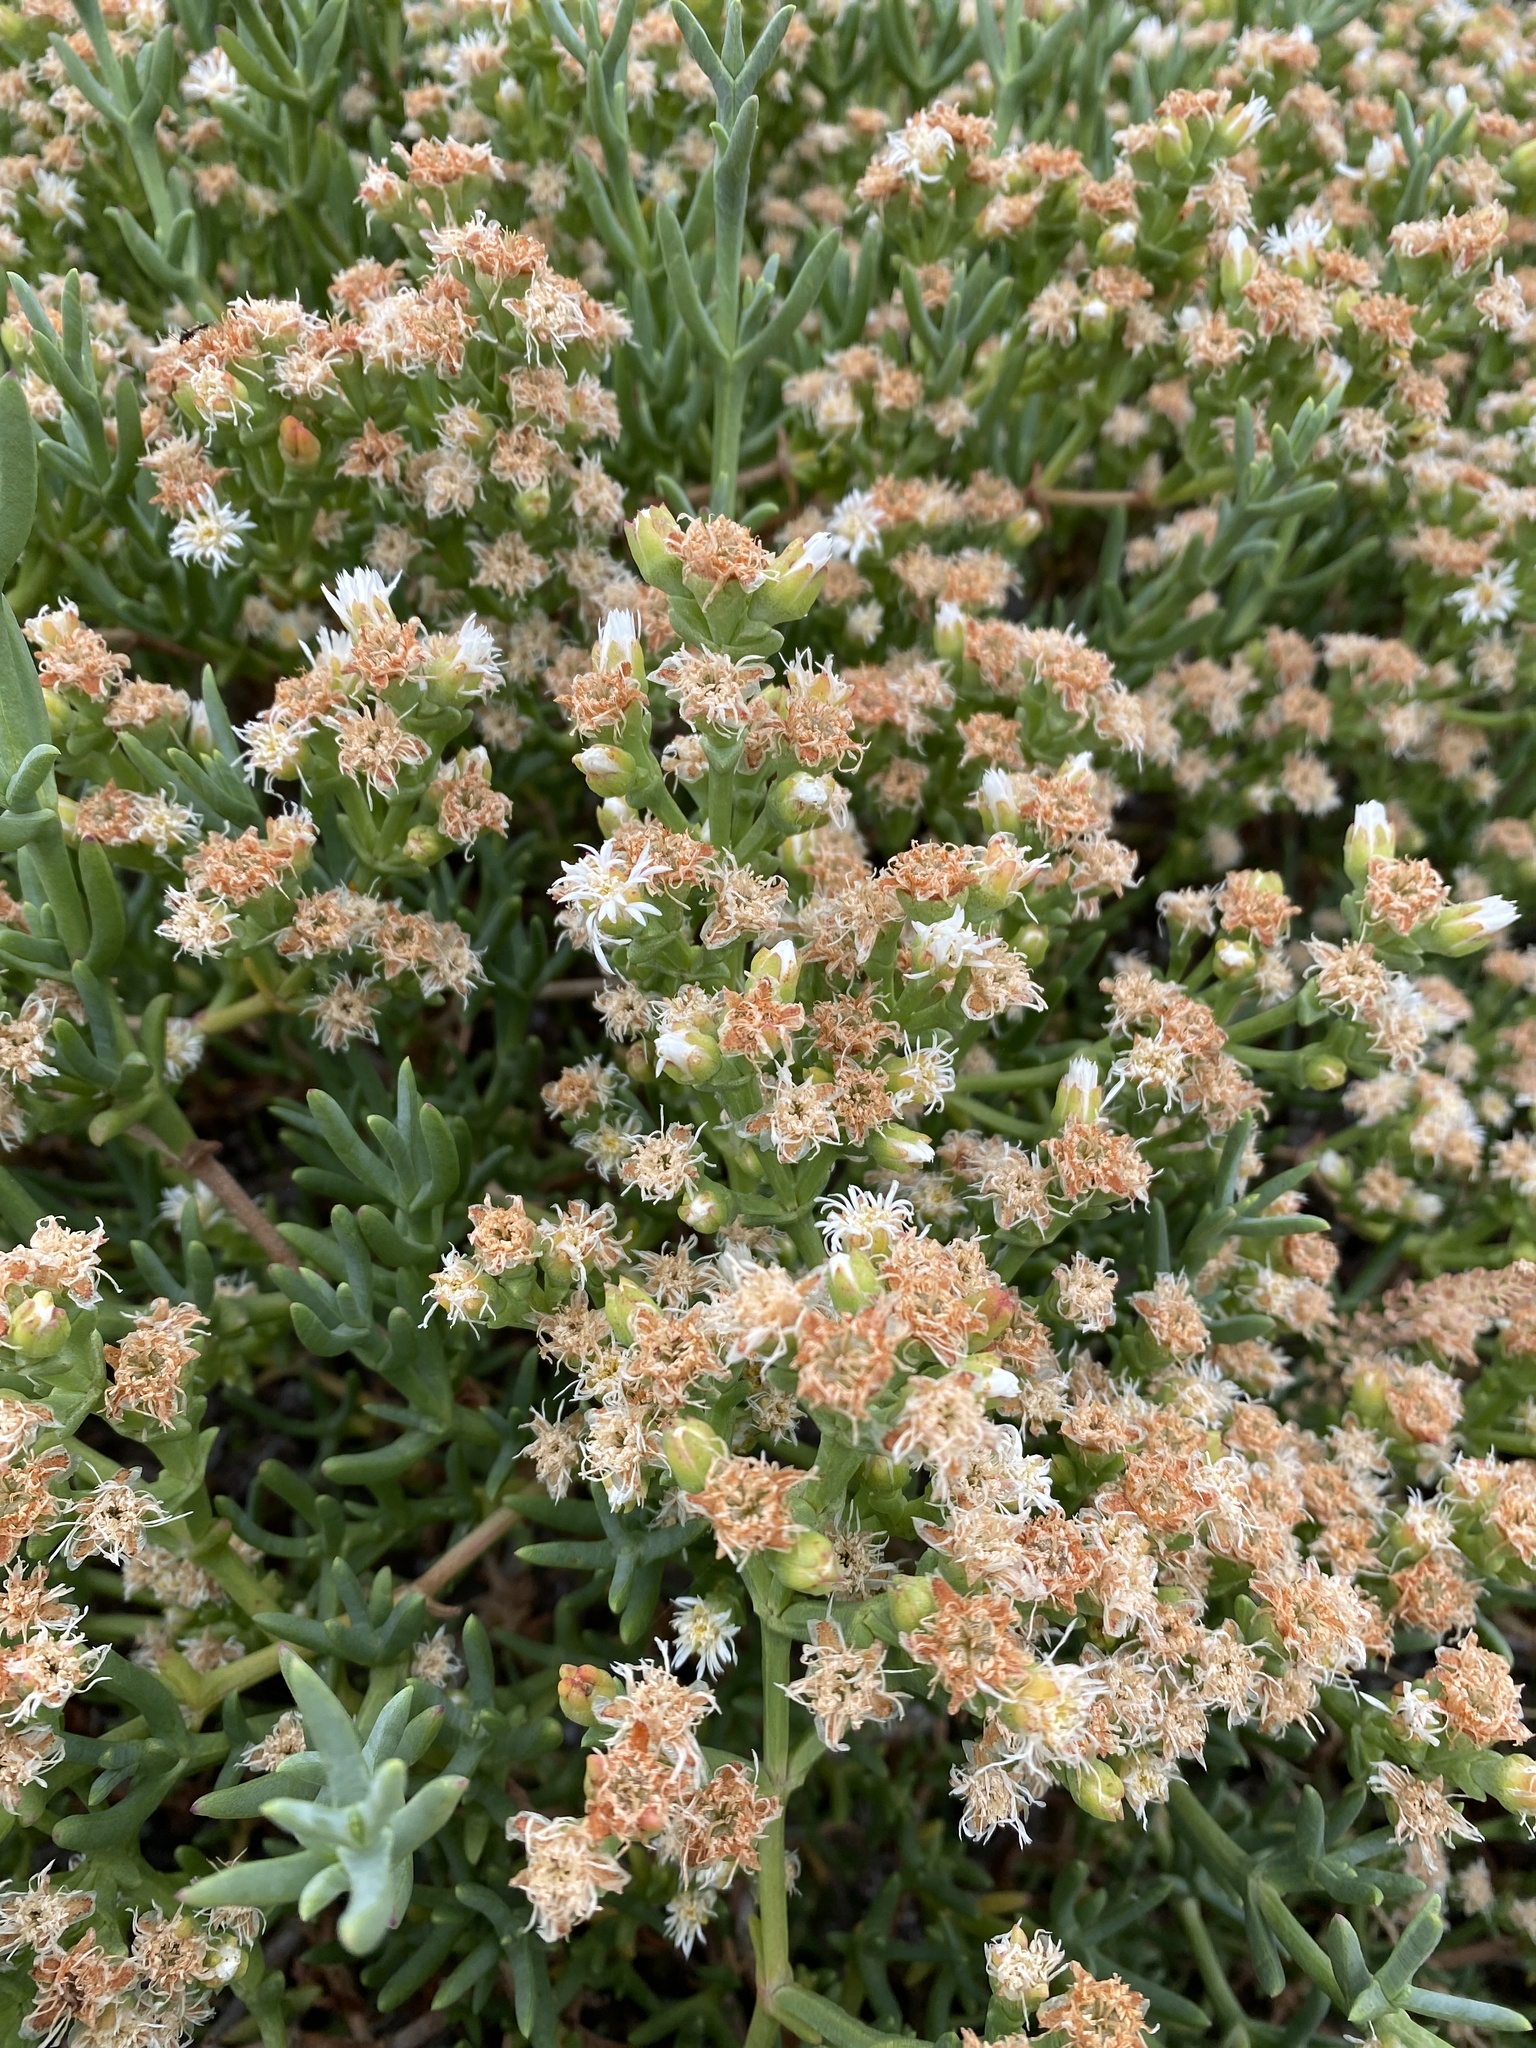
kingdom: Plantae
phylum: Tracheophyta
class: Magnoliopsida
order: Caryophyllales
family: Aizoaceae
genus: Ruschia
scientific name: Ruschia multiflora
